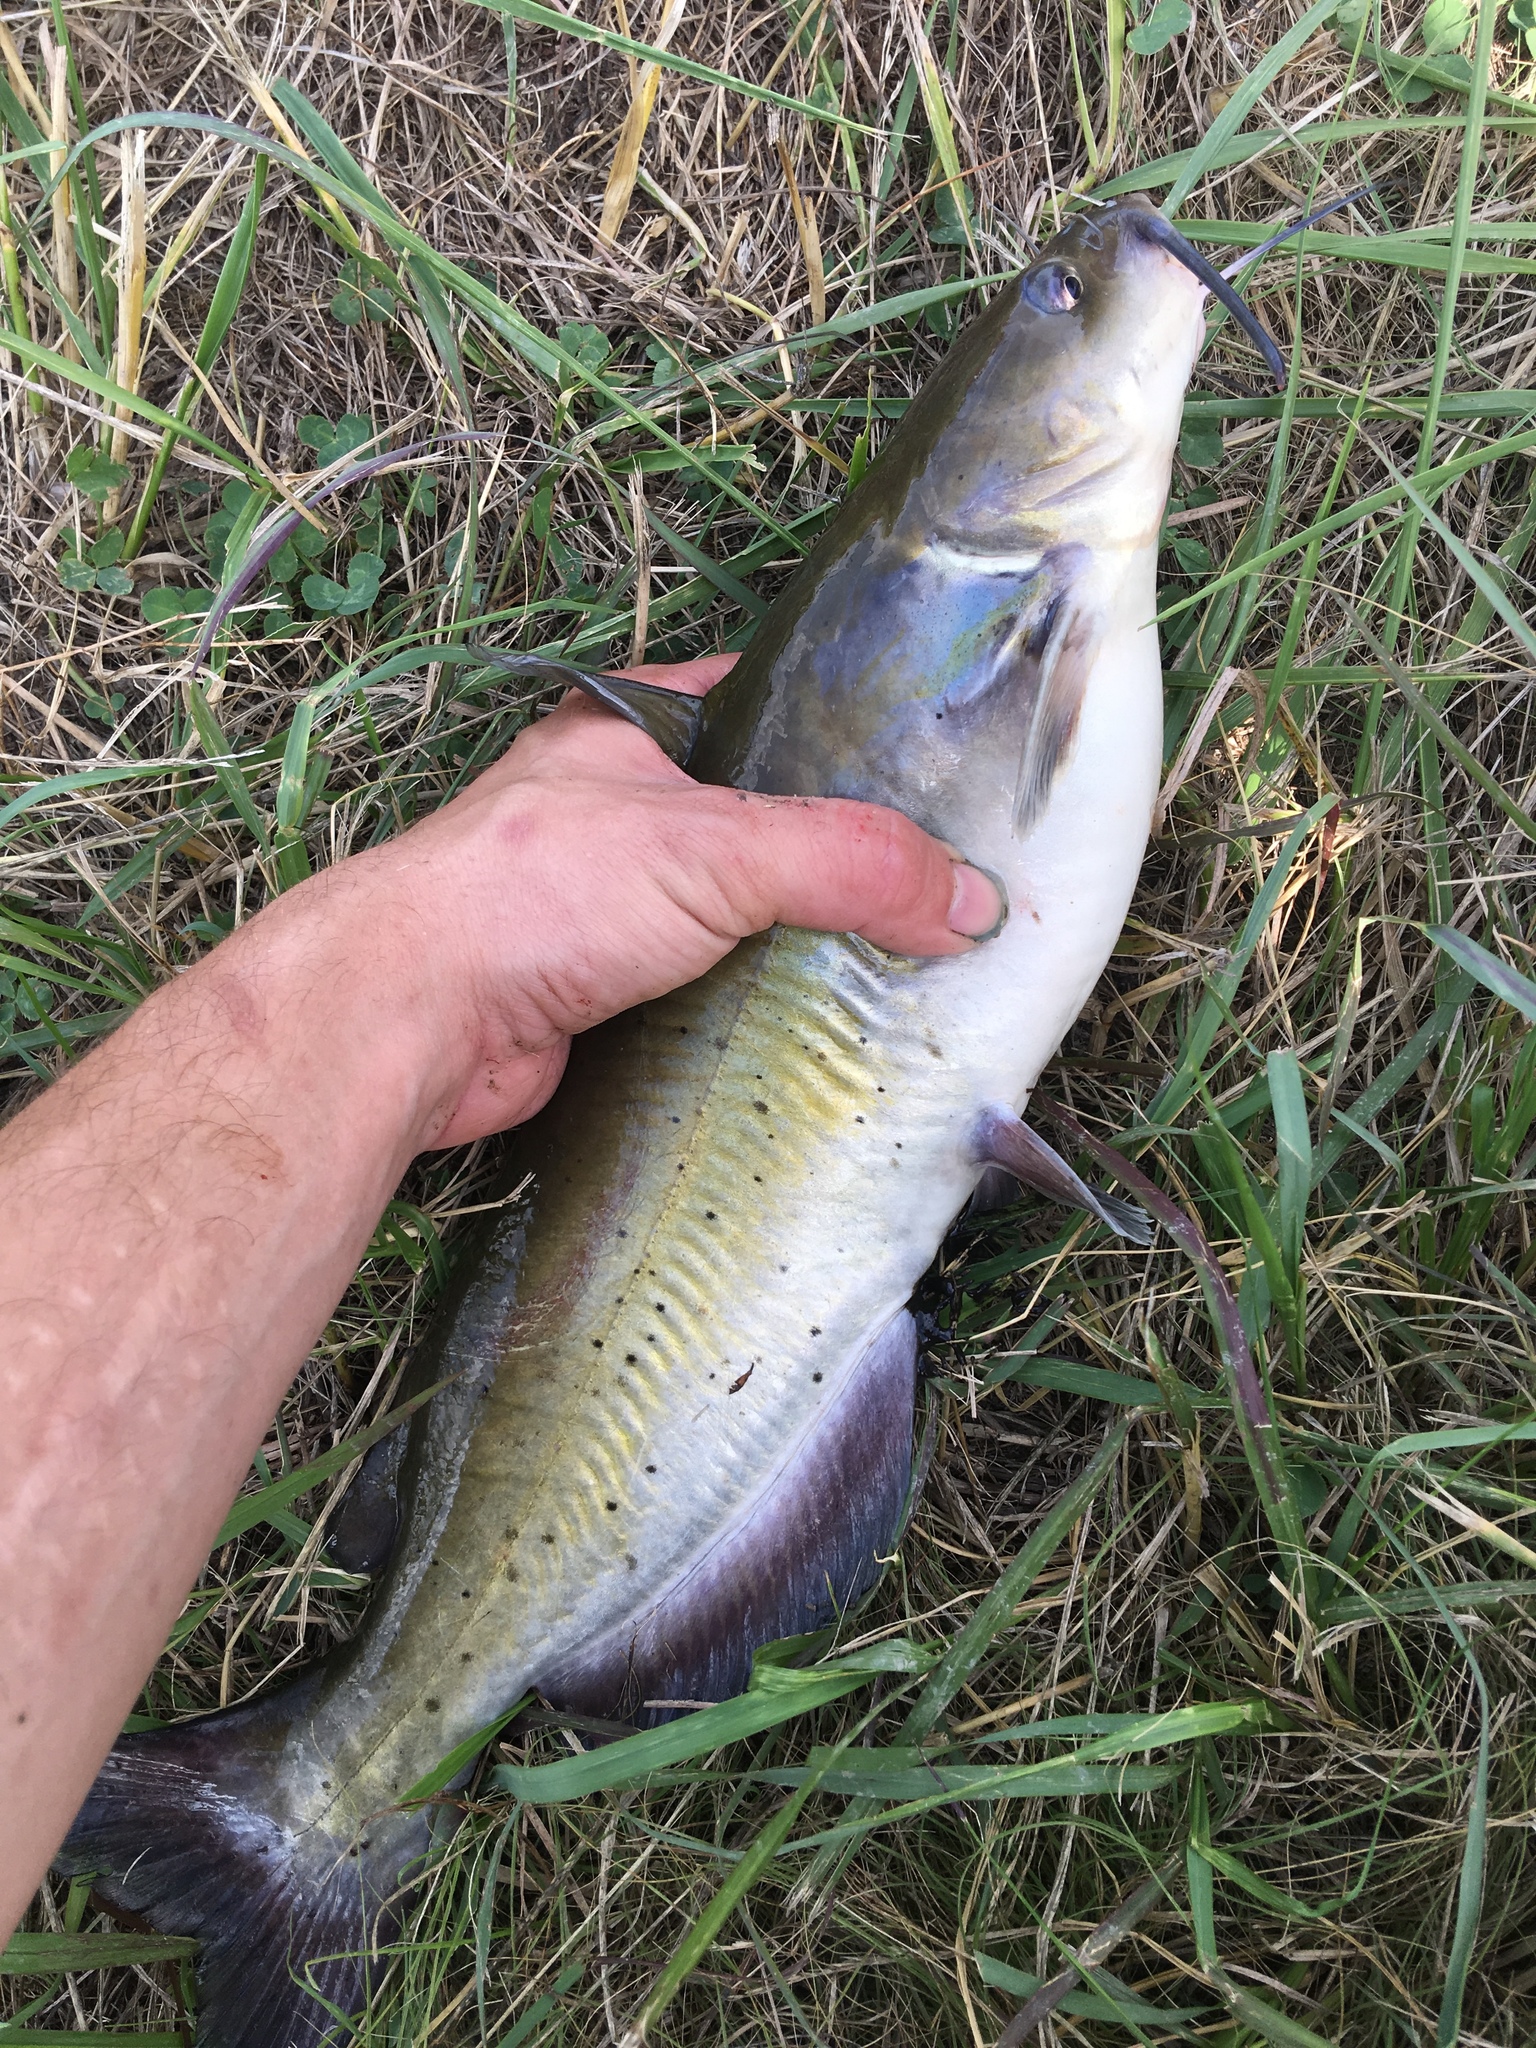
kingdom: Animalia
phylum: Chordata
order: Siluriformes
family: Ictaluridae
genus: Ictalurus
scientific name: Ictalurus punctatus
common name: Channel catfish
